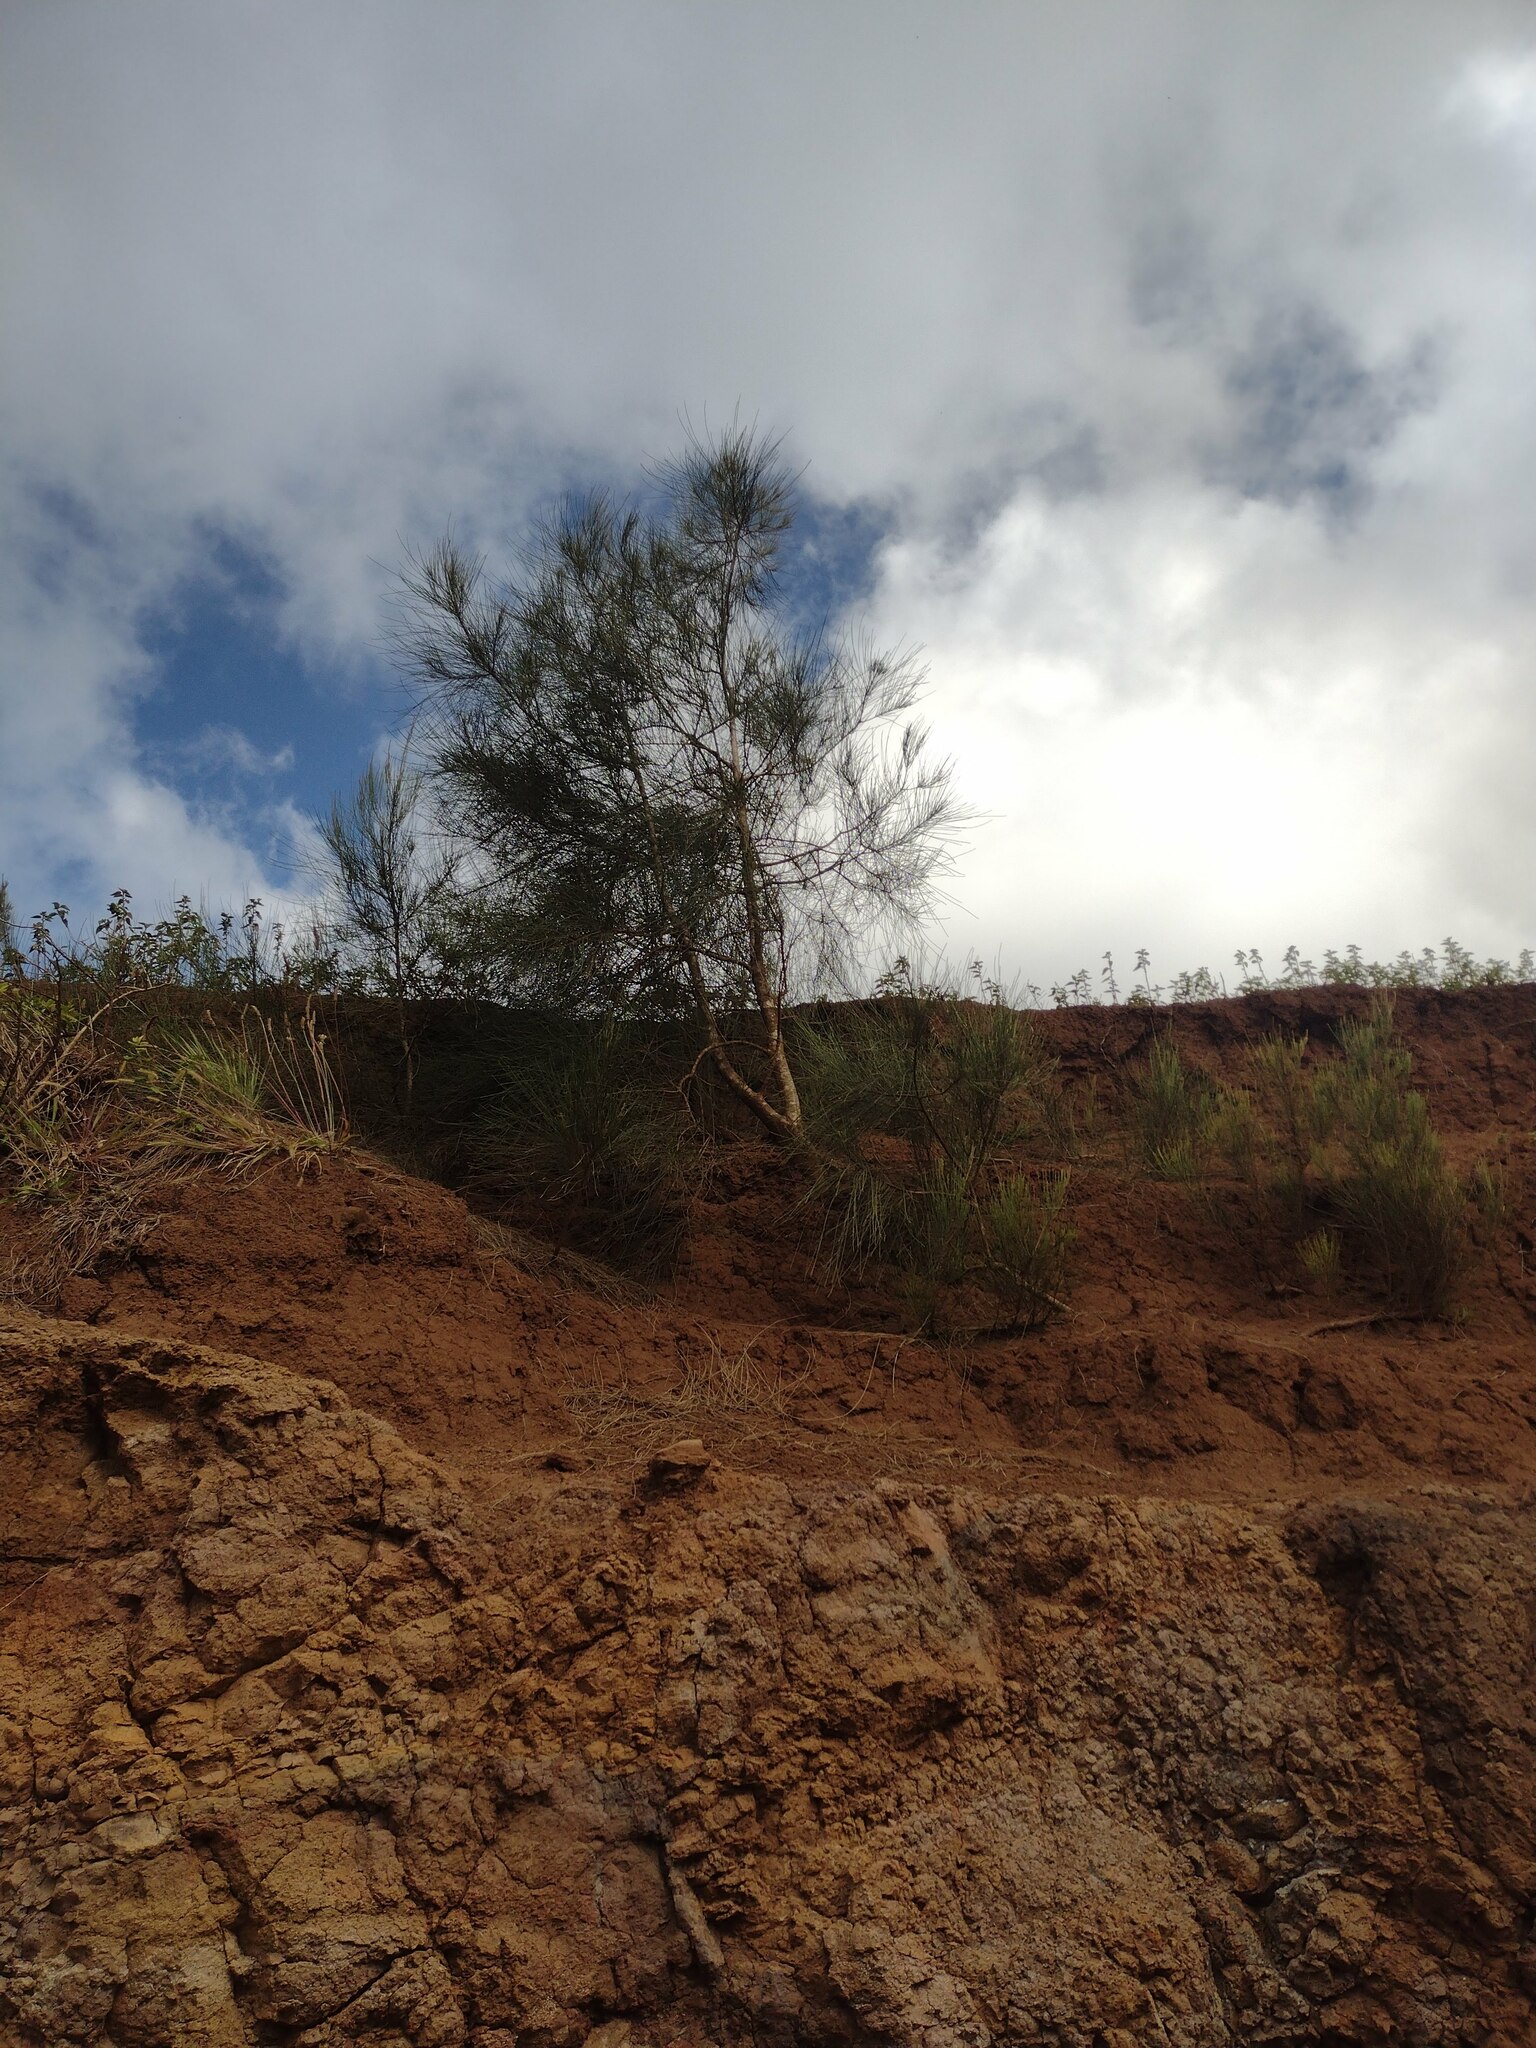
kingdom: Plantae
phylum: Tracheophyta
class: Magnoliopsida
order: Fagales
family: Casuarinaceae
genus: Casuarina
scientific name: Casuarina equisetifolia
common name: Beach sheoak
